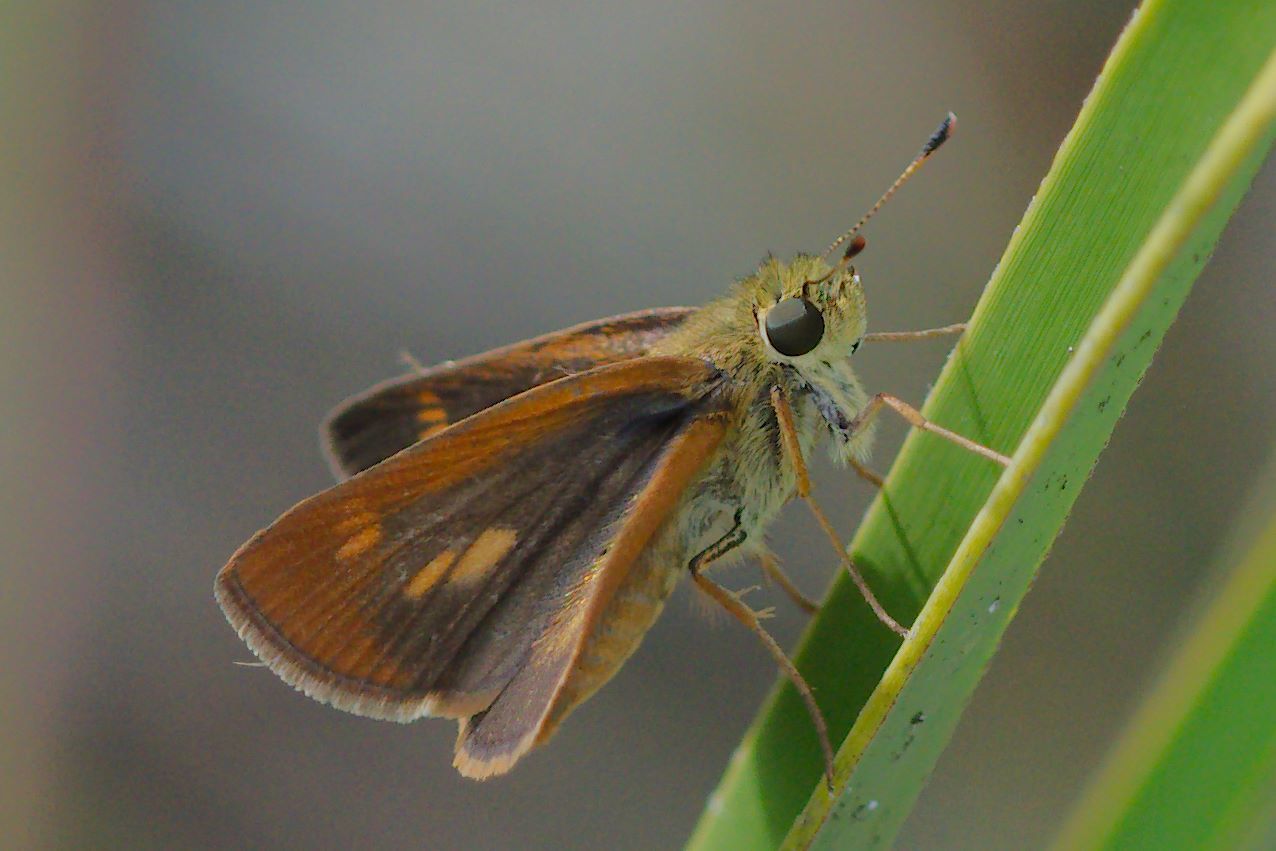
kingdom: Animalia
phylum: Arthropoda
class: Insecta
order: Lepidoptera
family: Hesperiidae
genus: Polites
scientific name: Polites otho
